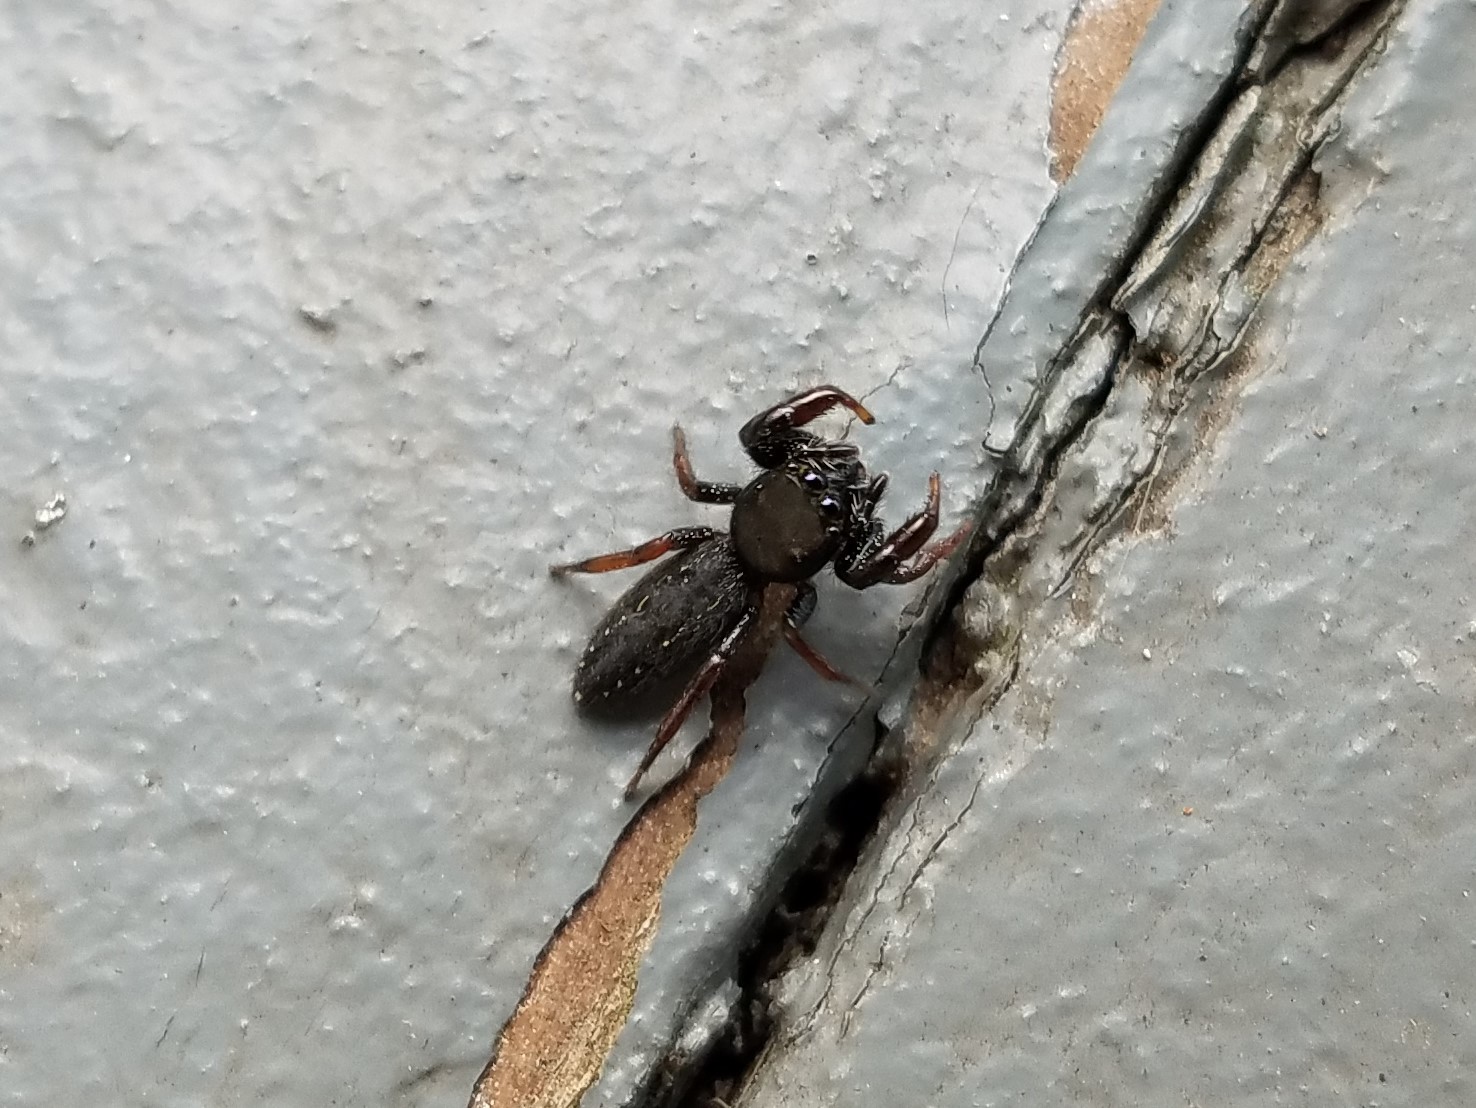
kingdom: Animalia
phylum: Arthropoda
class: Arachnida
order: Araneae
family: Salticidae
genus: Metacyrba
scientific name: Metacyrba taeniola
